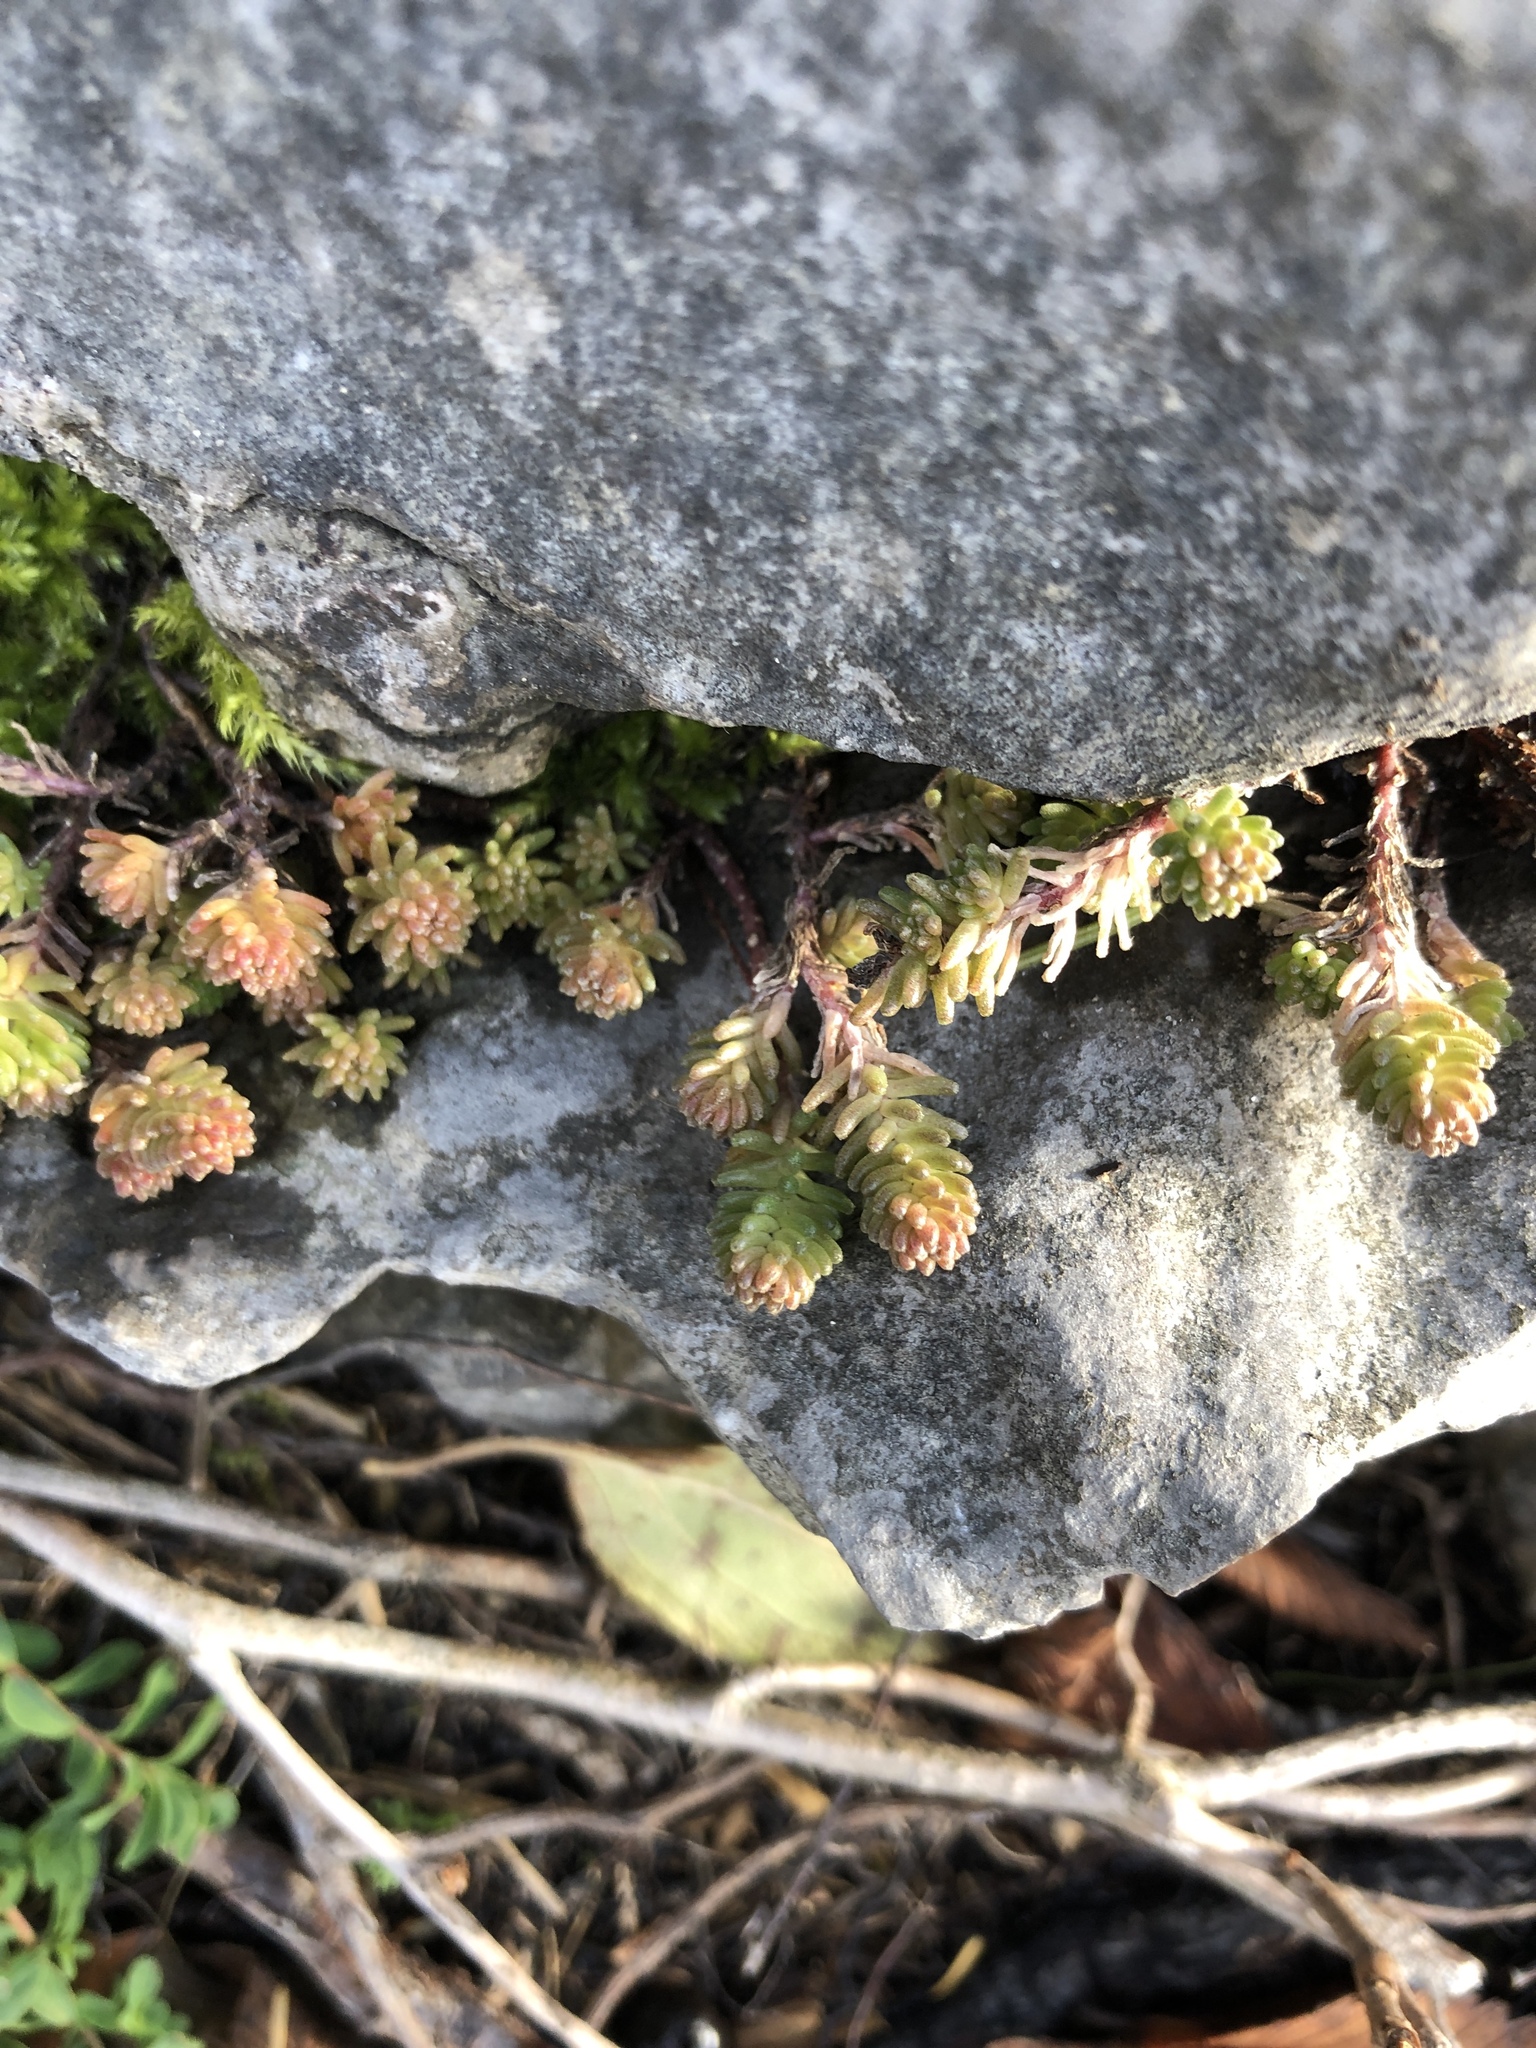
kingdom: Plantae
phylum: Tracheophyta
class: Magnoliopsida
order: Saxifragales
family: Crassulaceae
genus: Sedum
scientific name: Sedum sexangulare
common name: Tasteless stonecrop
